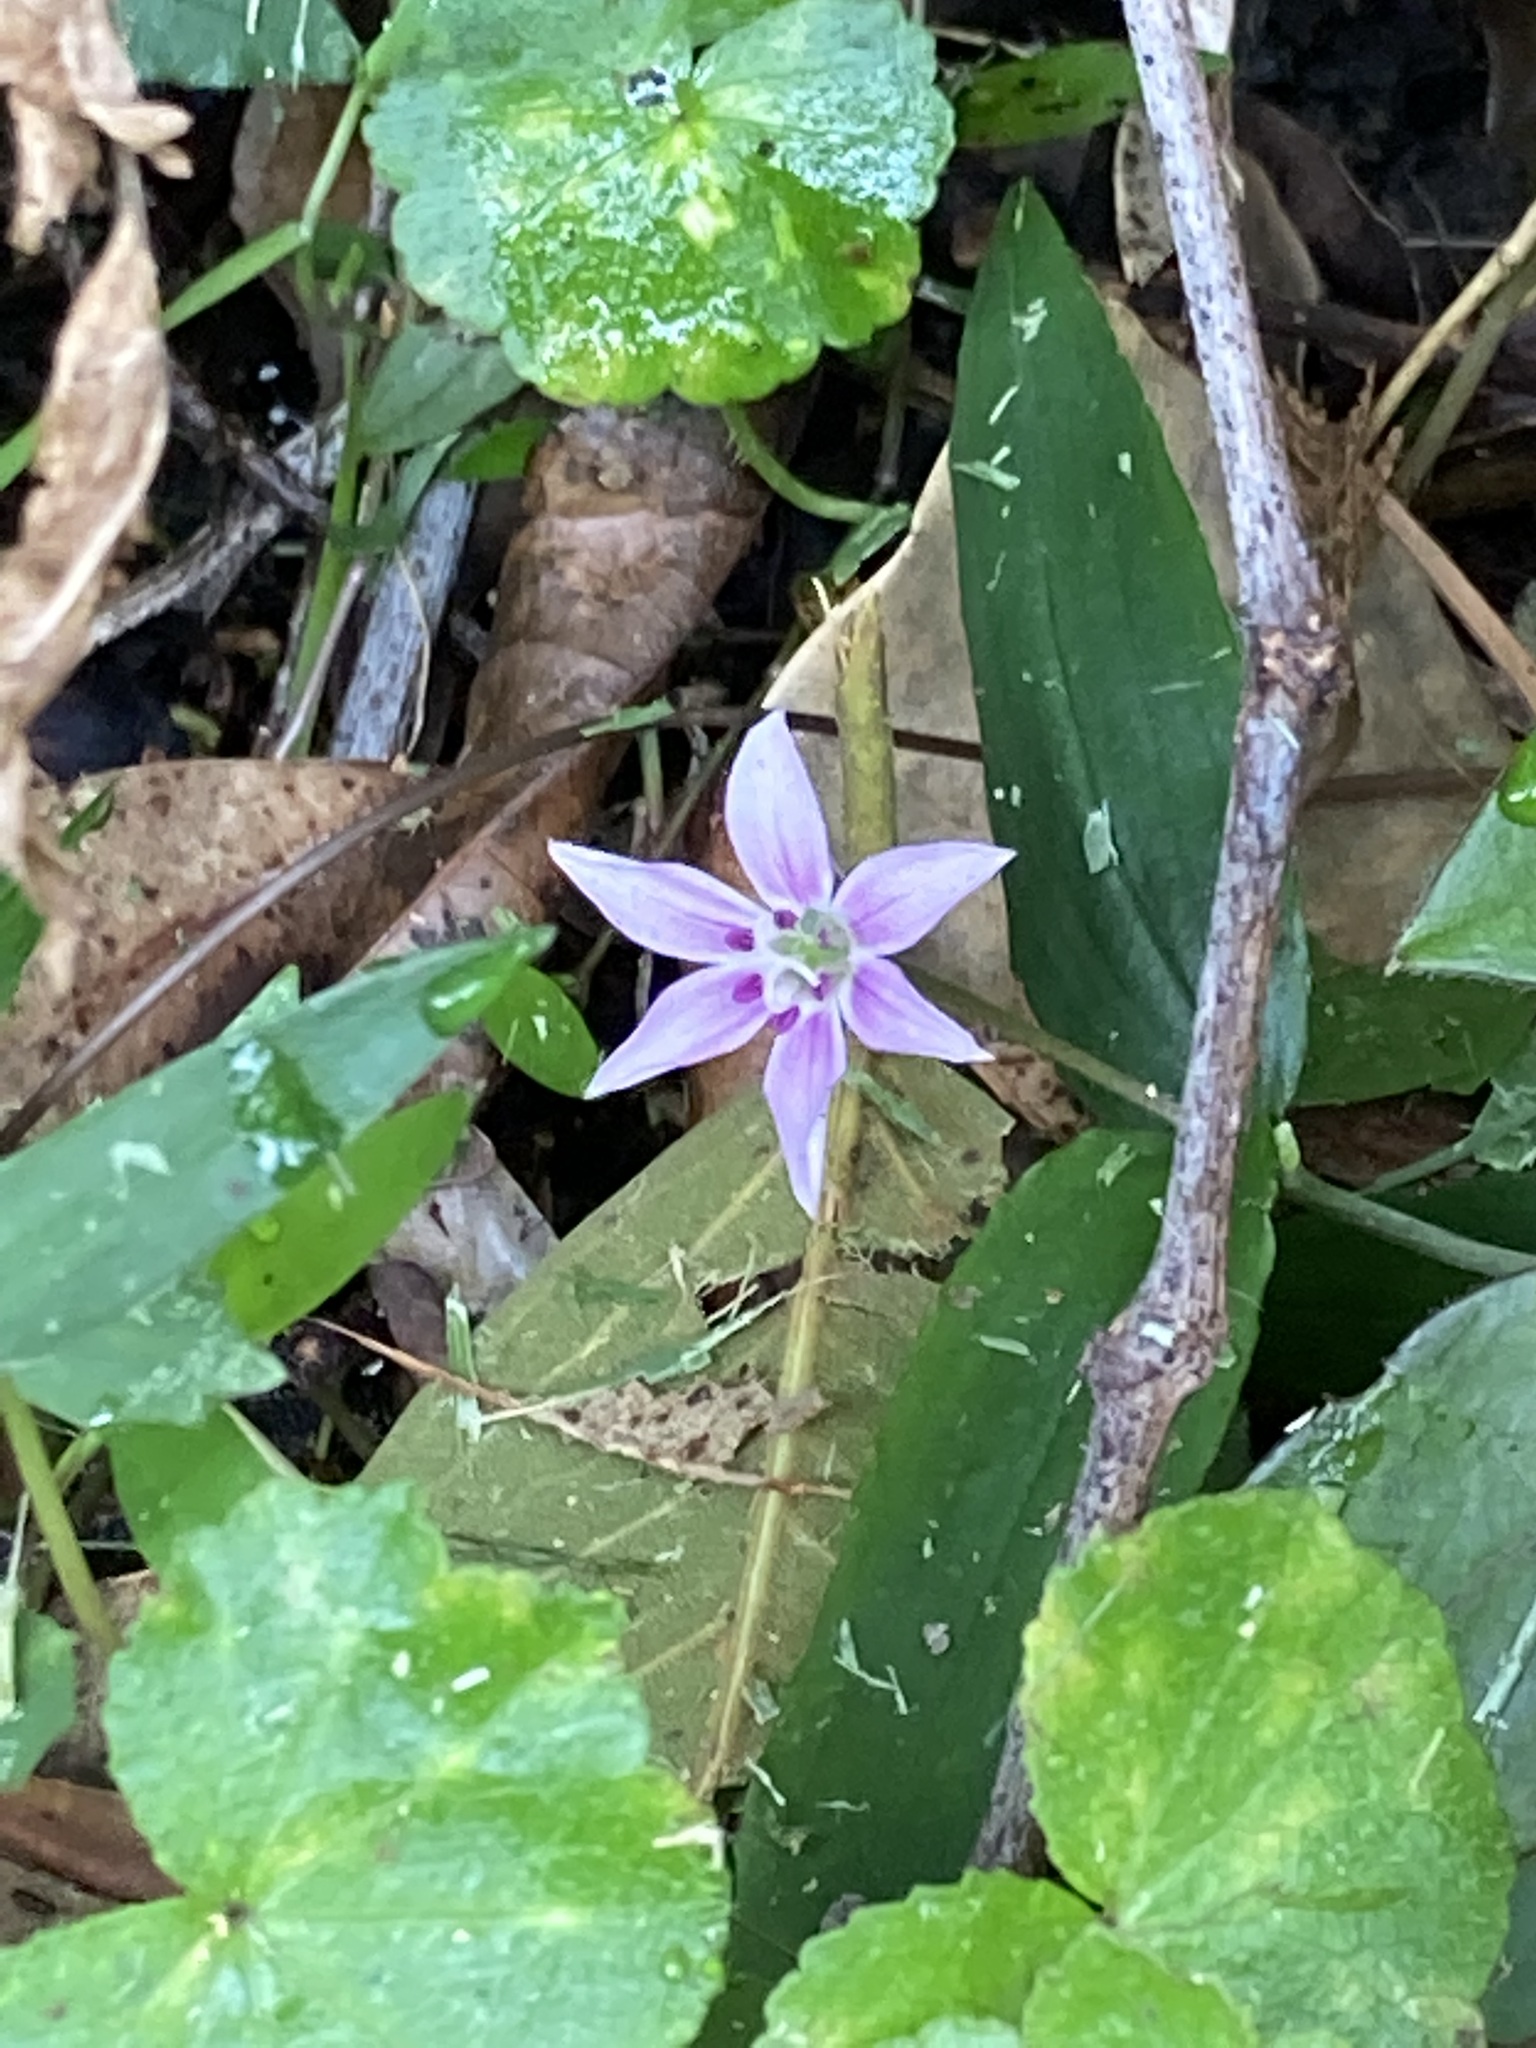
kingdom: Plantae
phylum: Tracheophyta
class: Liliopsida
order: Liliales
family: Colchicaceae
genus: Schelhammera
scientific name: Schelhammera undulata
